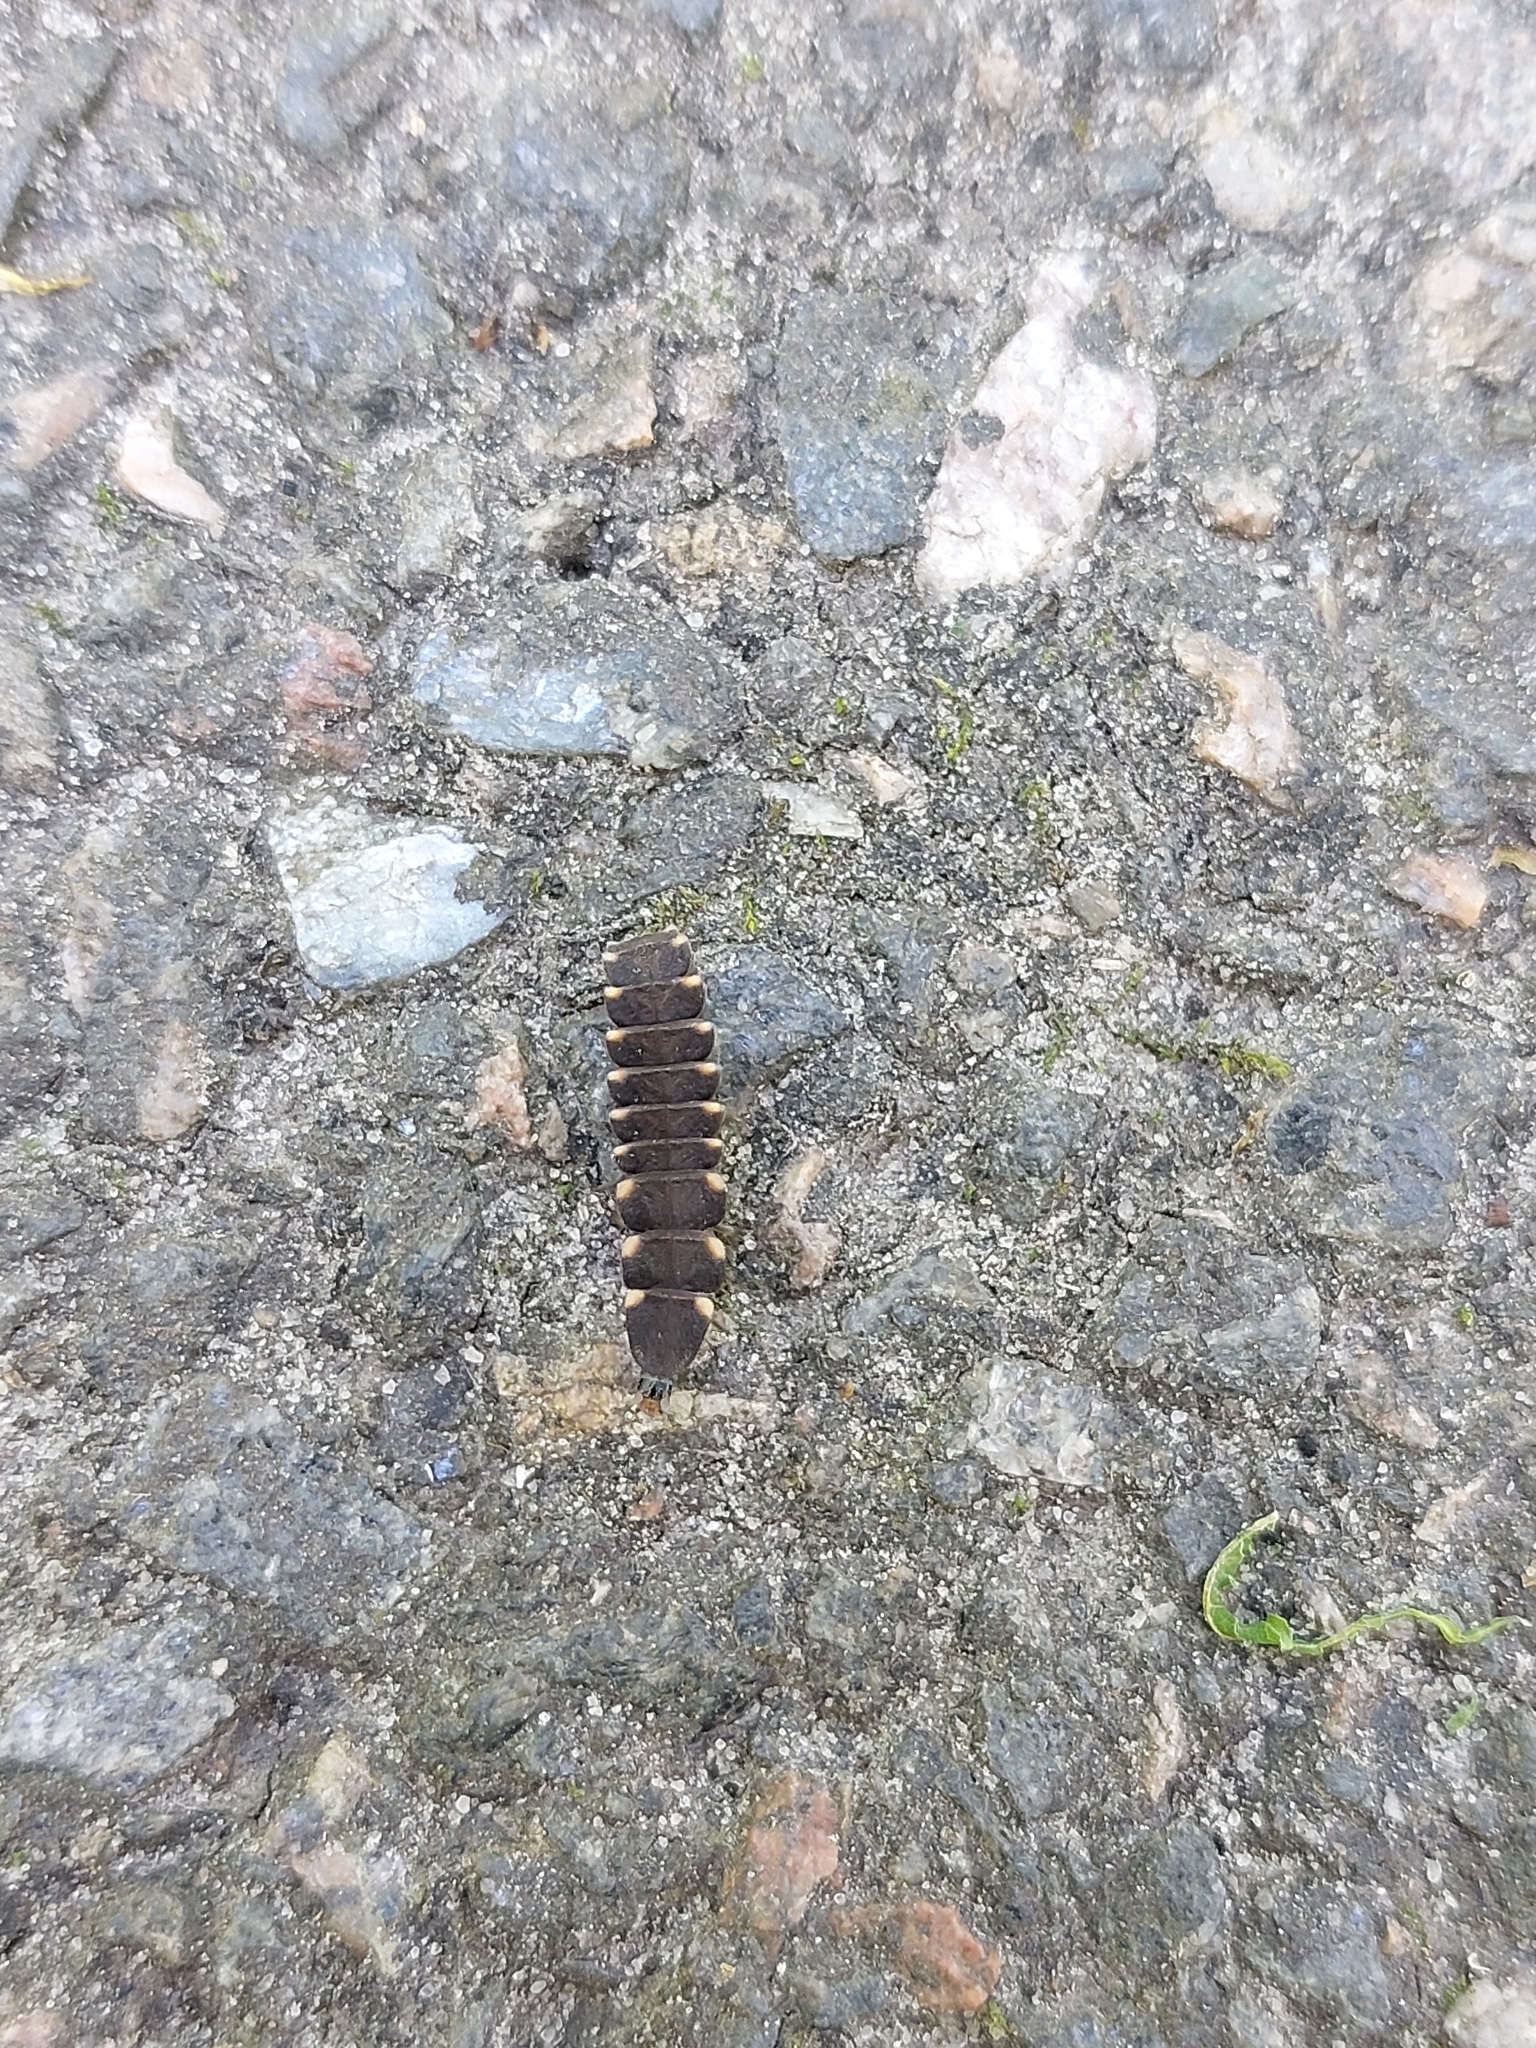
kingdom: Animalia
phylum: Arthropoda
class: Insecta
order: Coleoptera
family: Lampyridae
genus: Lampyris
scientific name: Lampyris noctiluca
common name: Glow-worm
